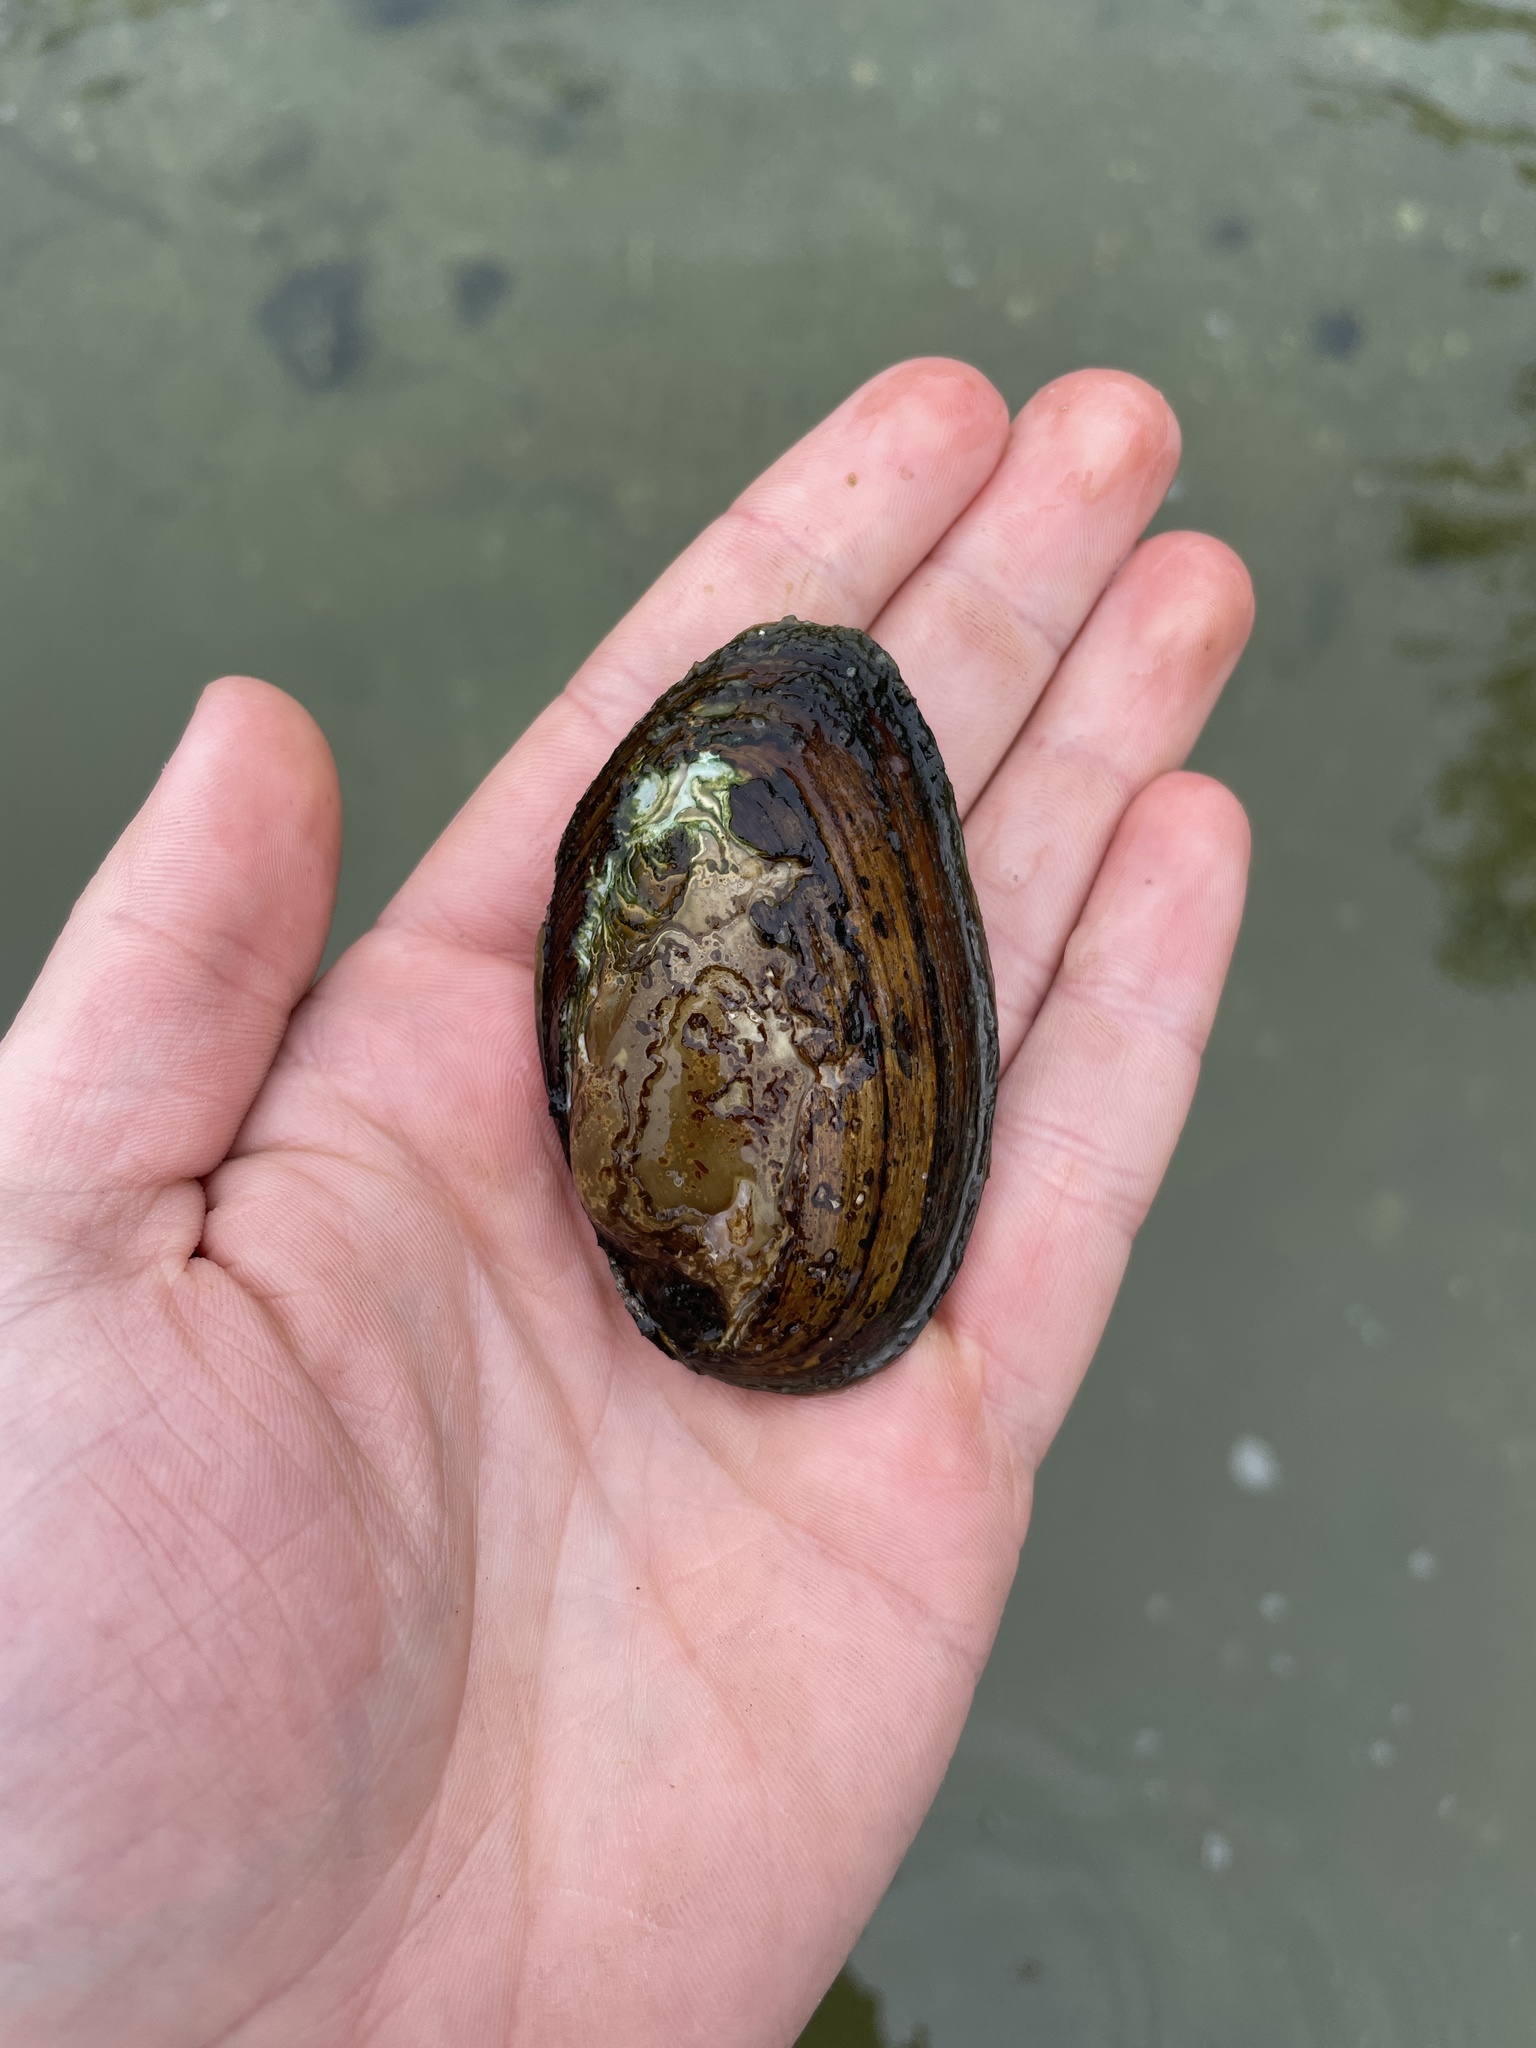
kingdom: Animalia
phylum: Mollusca
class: Bivalvia
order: Unionida
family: Unionidae
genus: Elliptio
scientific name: Elliptio complanata
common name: Eastern elliptio
